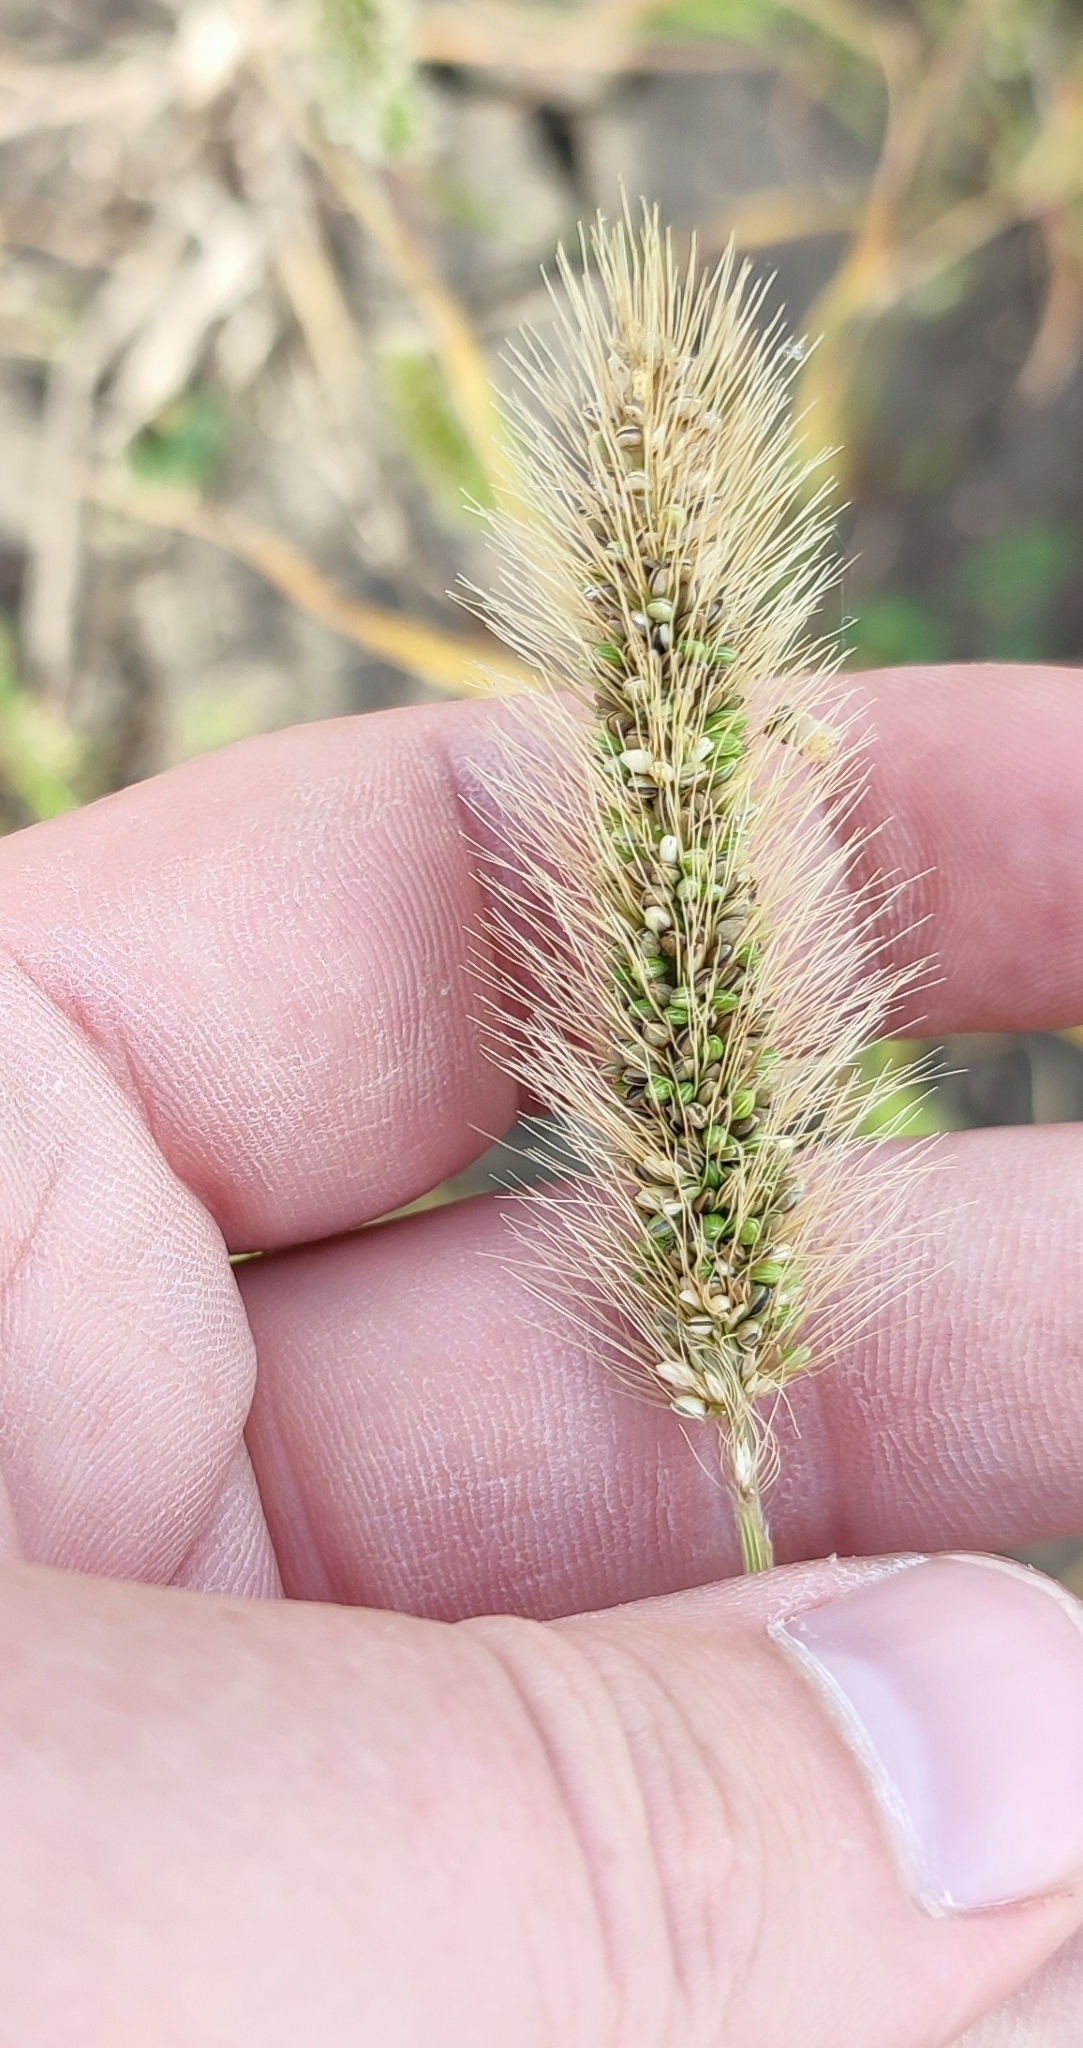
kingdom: Plantae
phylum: Tracheophyta
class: Liliopsida
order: Poales
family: Poaceae
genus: Setaria
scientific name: Setaria viridis
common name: Green bristlegrass
